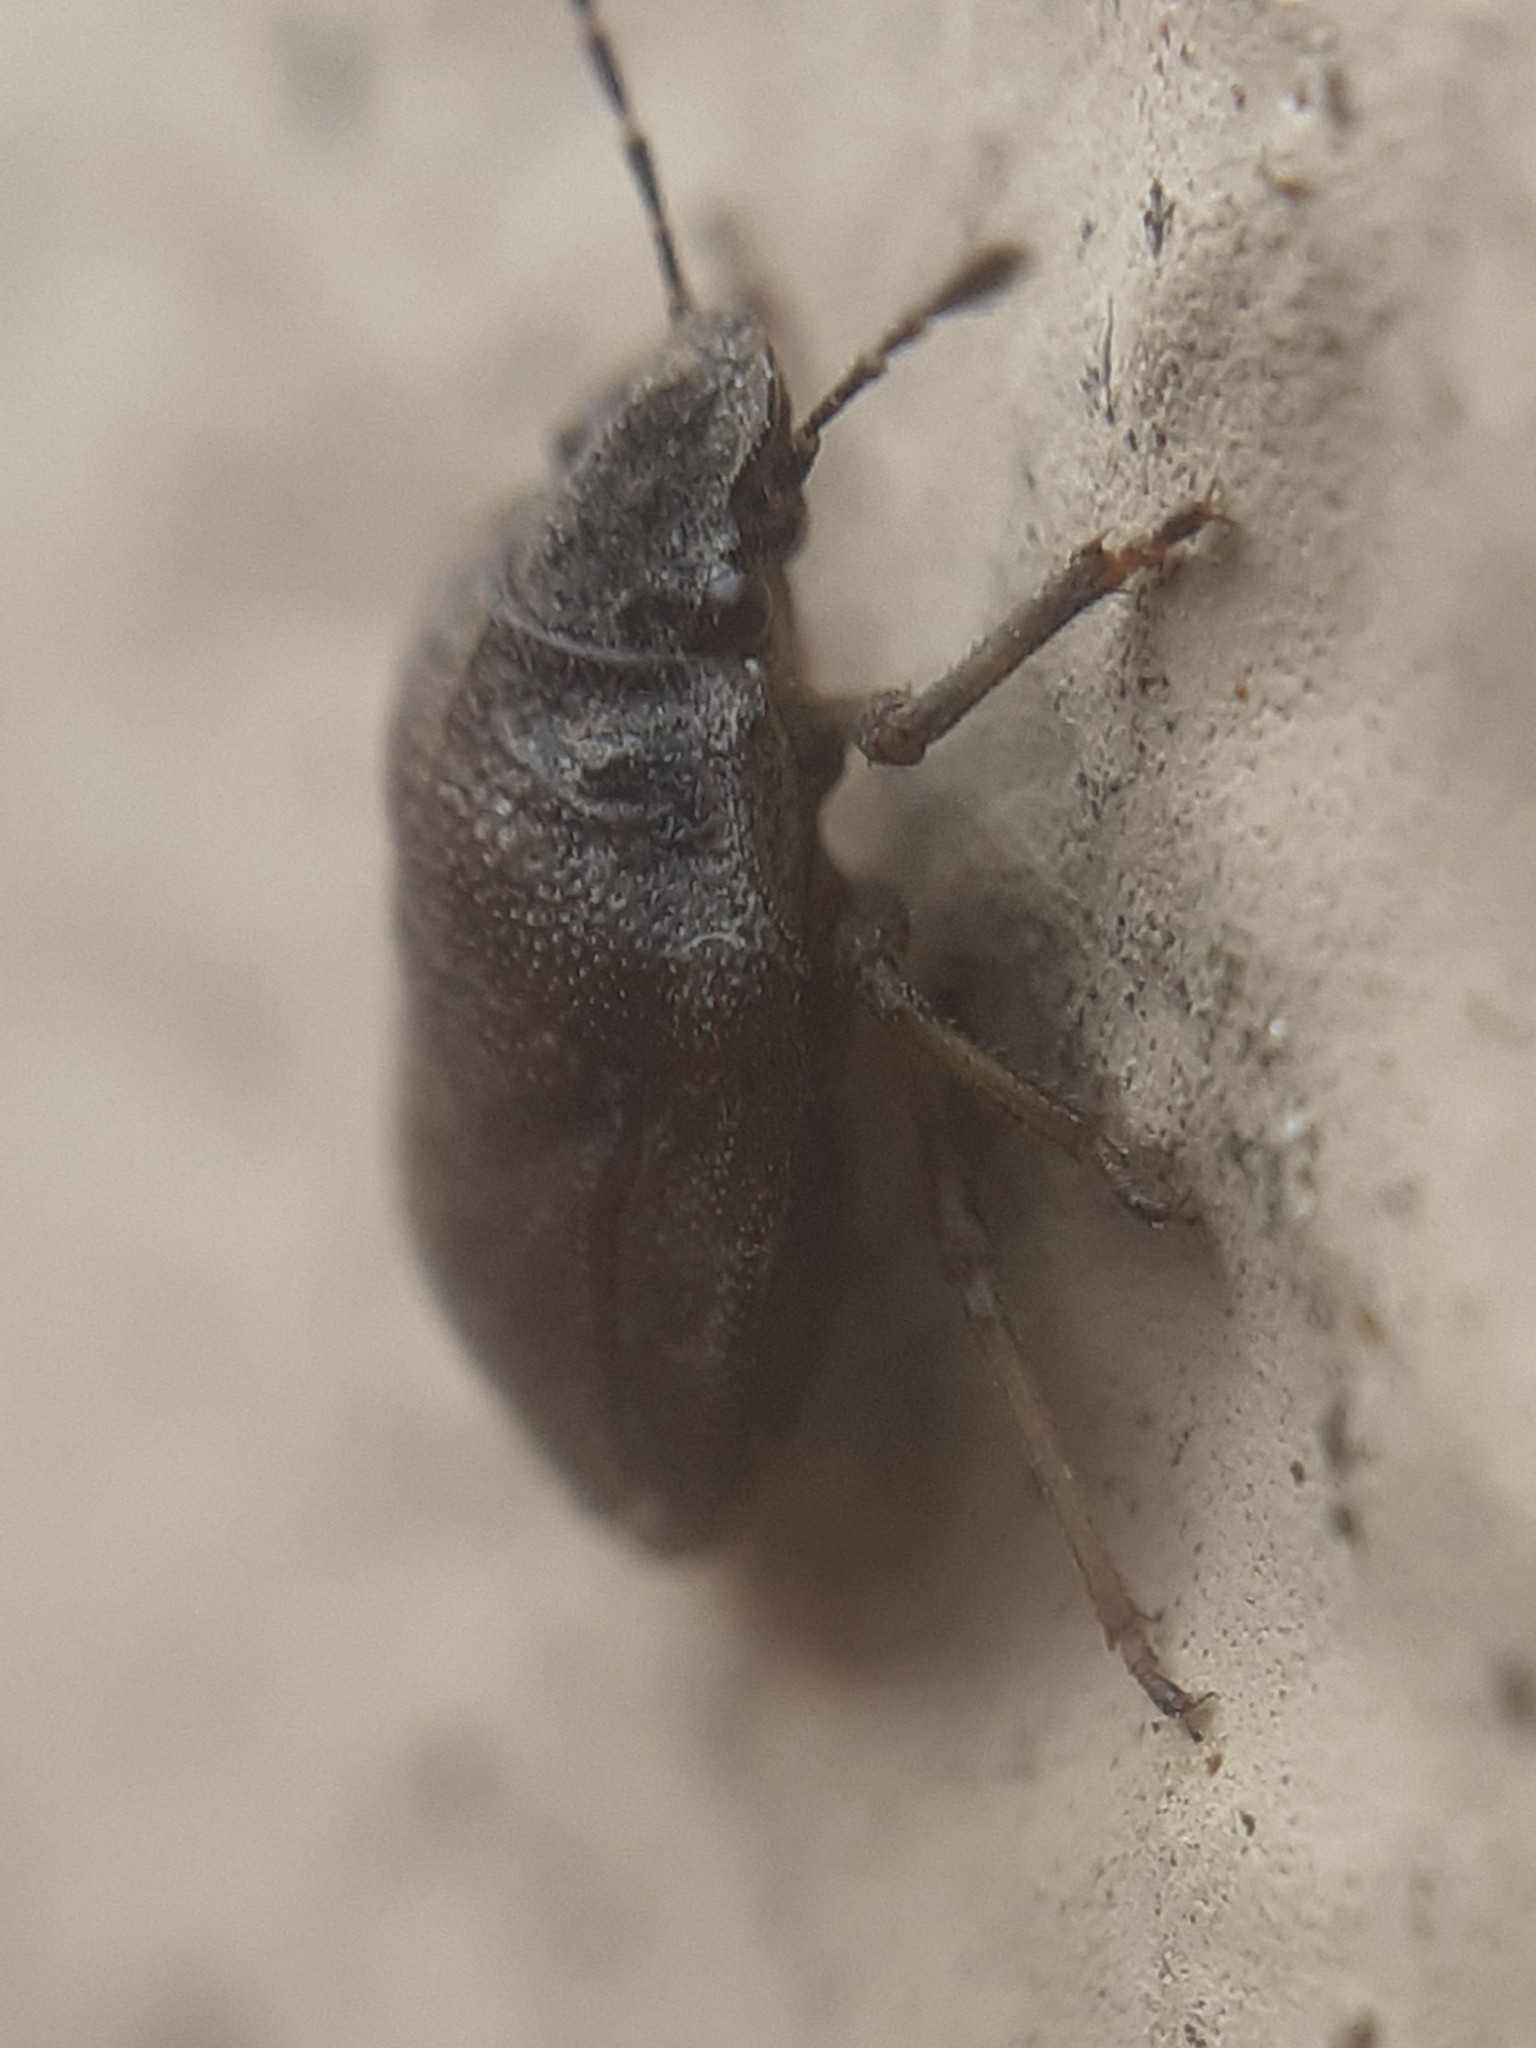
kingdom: Animalia
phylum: Arthropoda
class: Insecta
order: Hemiptera
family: Pentatomidae
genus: Podops
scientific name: Podops inunctus
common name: Turtle bug
